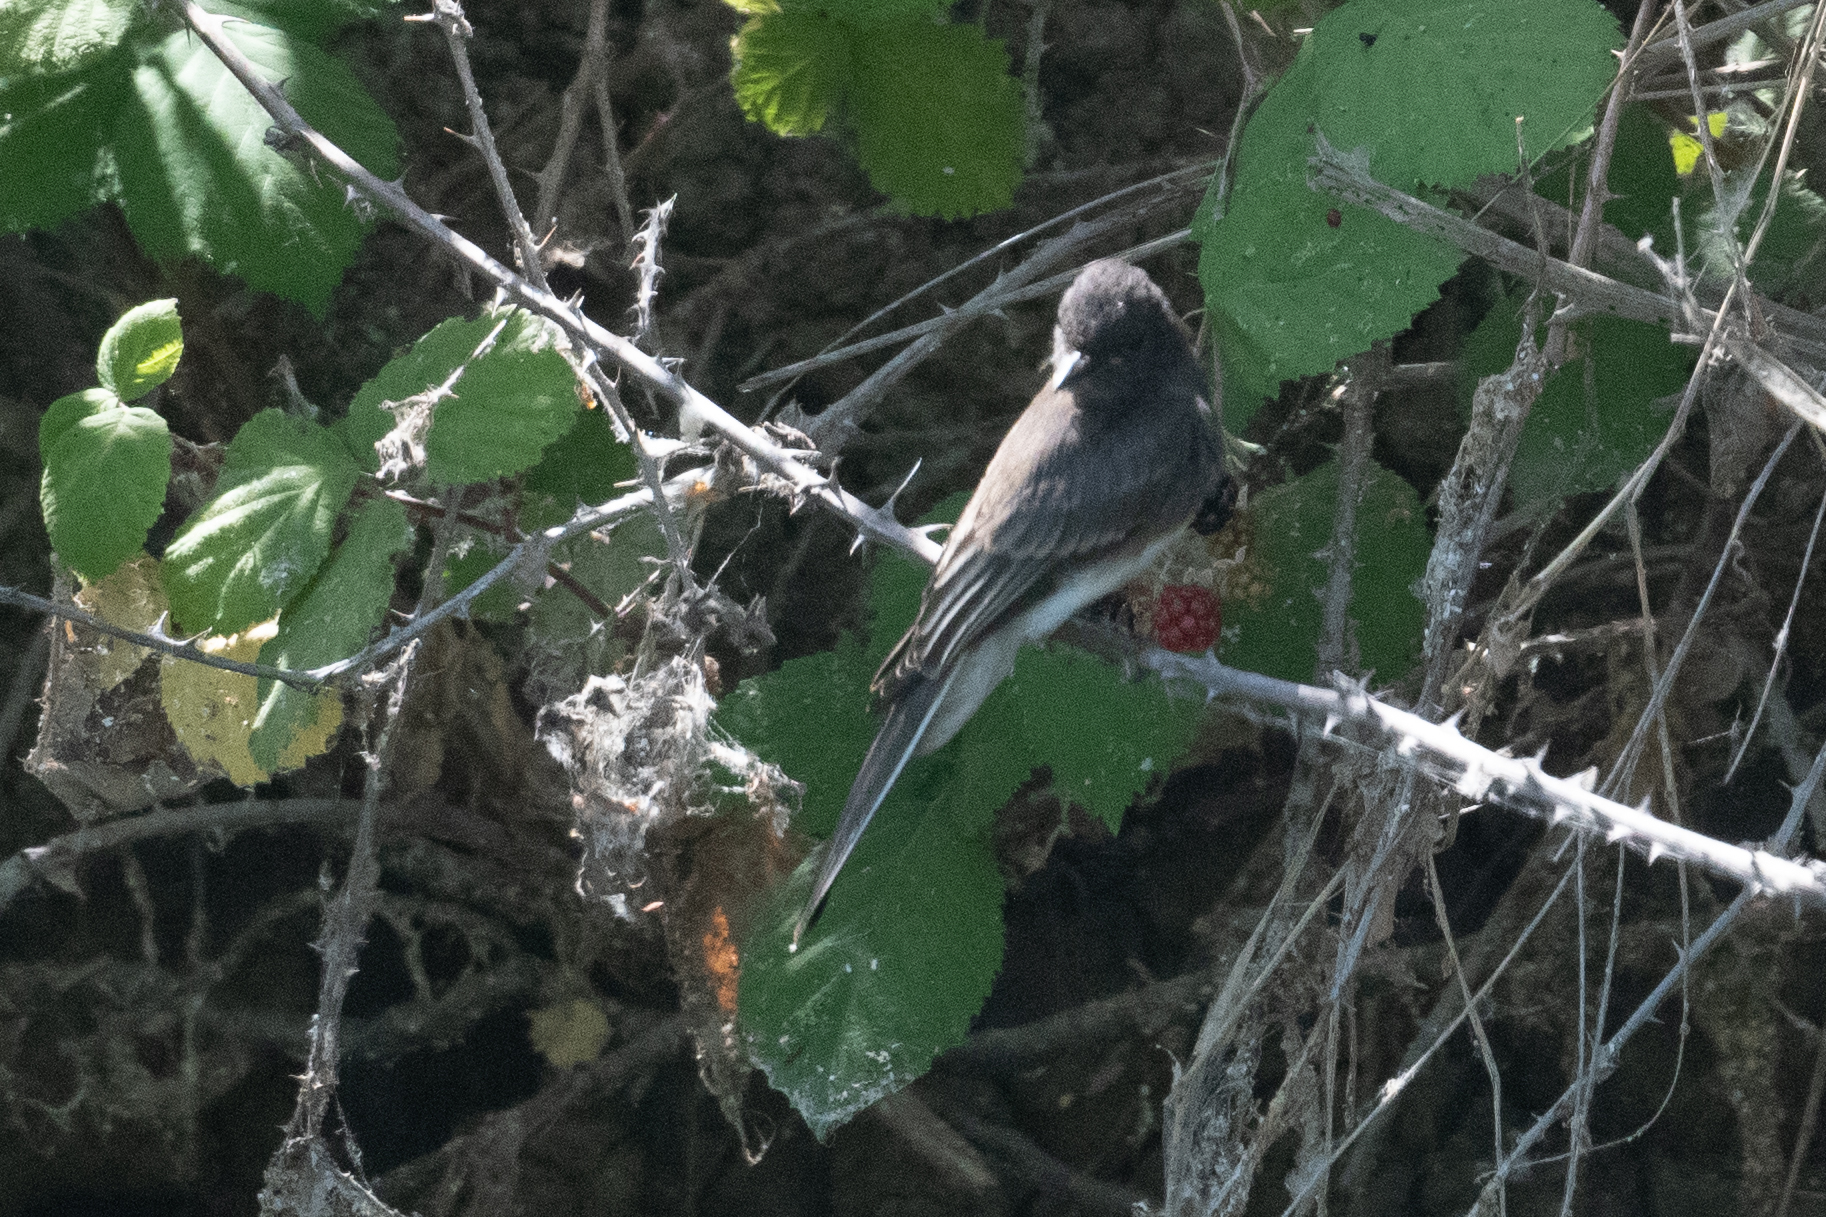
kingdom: Animalia
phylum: Chordata
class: Aves
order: Passeriformes
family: Tyrannidae
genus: Sayornis
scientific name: Sayornis nigricans
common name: Black phoebe
